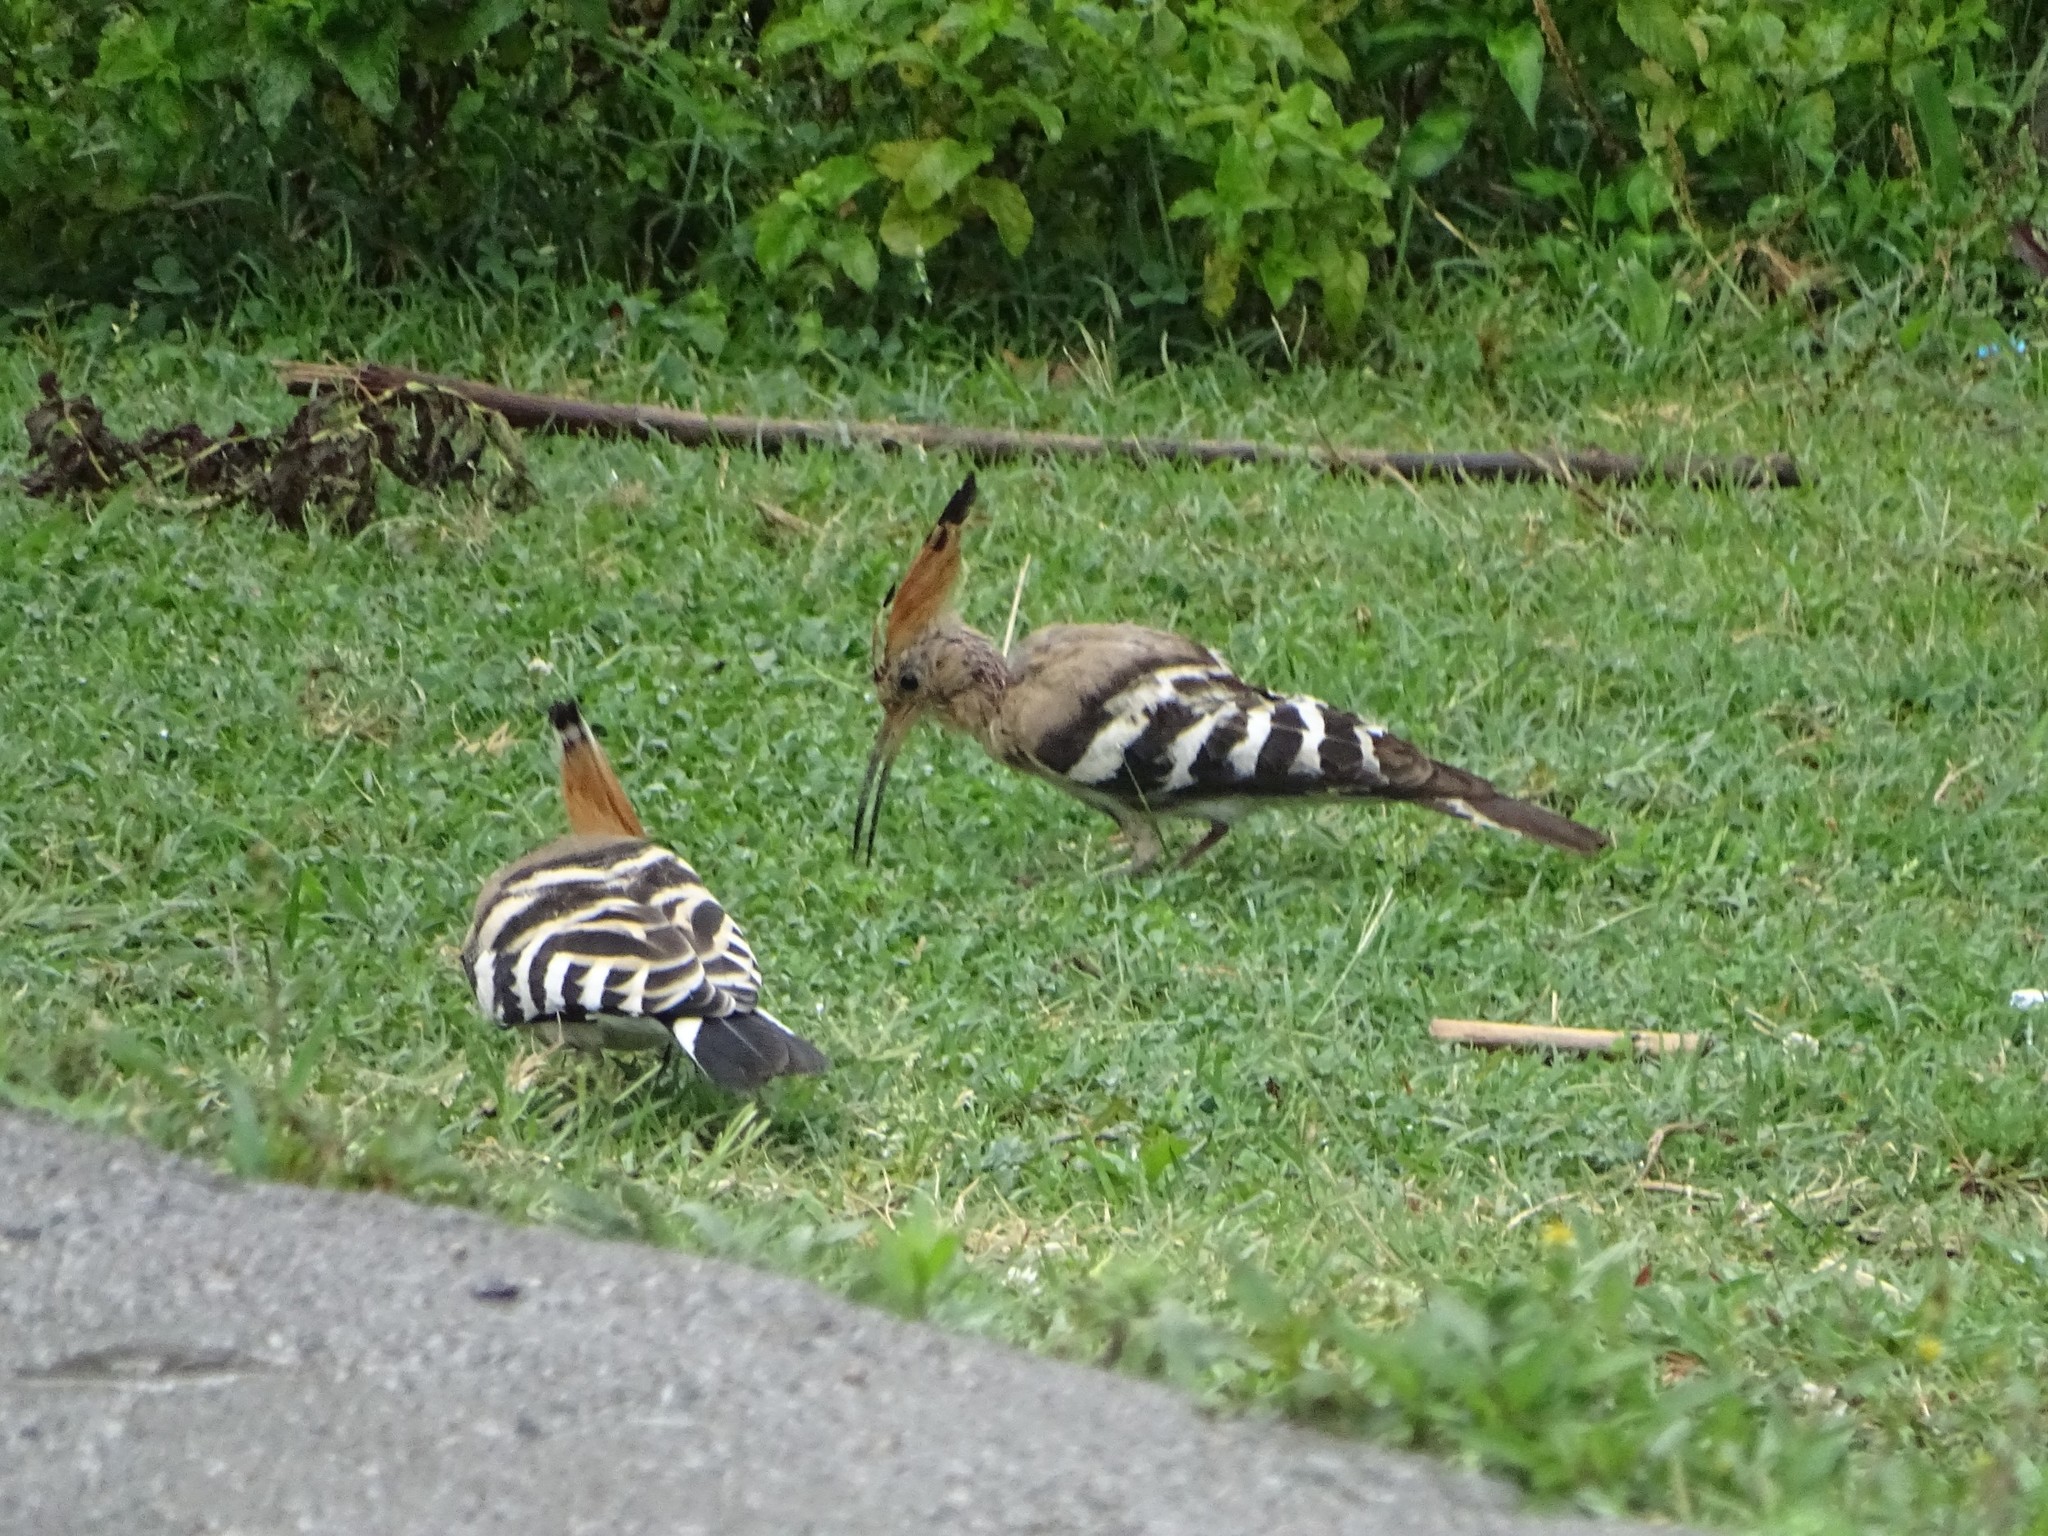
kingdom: Animalia
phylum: Chordata
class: Aves
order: Bucerotiformes
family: Upupidae
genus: Upupa
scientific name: Upupa epops
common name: Eurasian hoopoe
